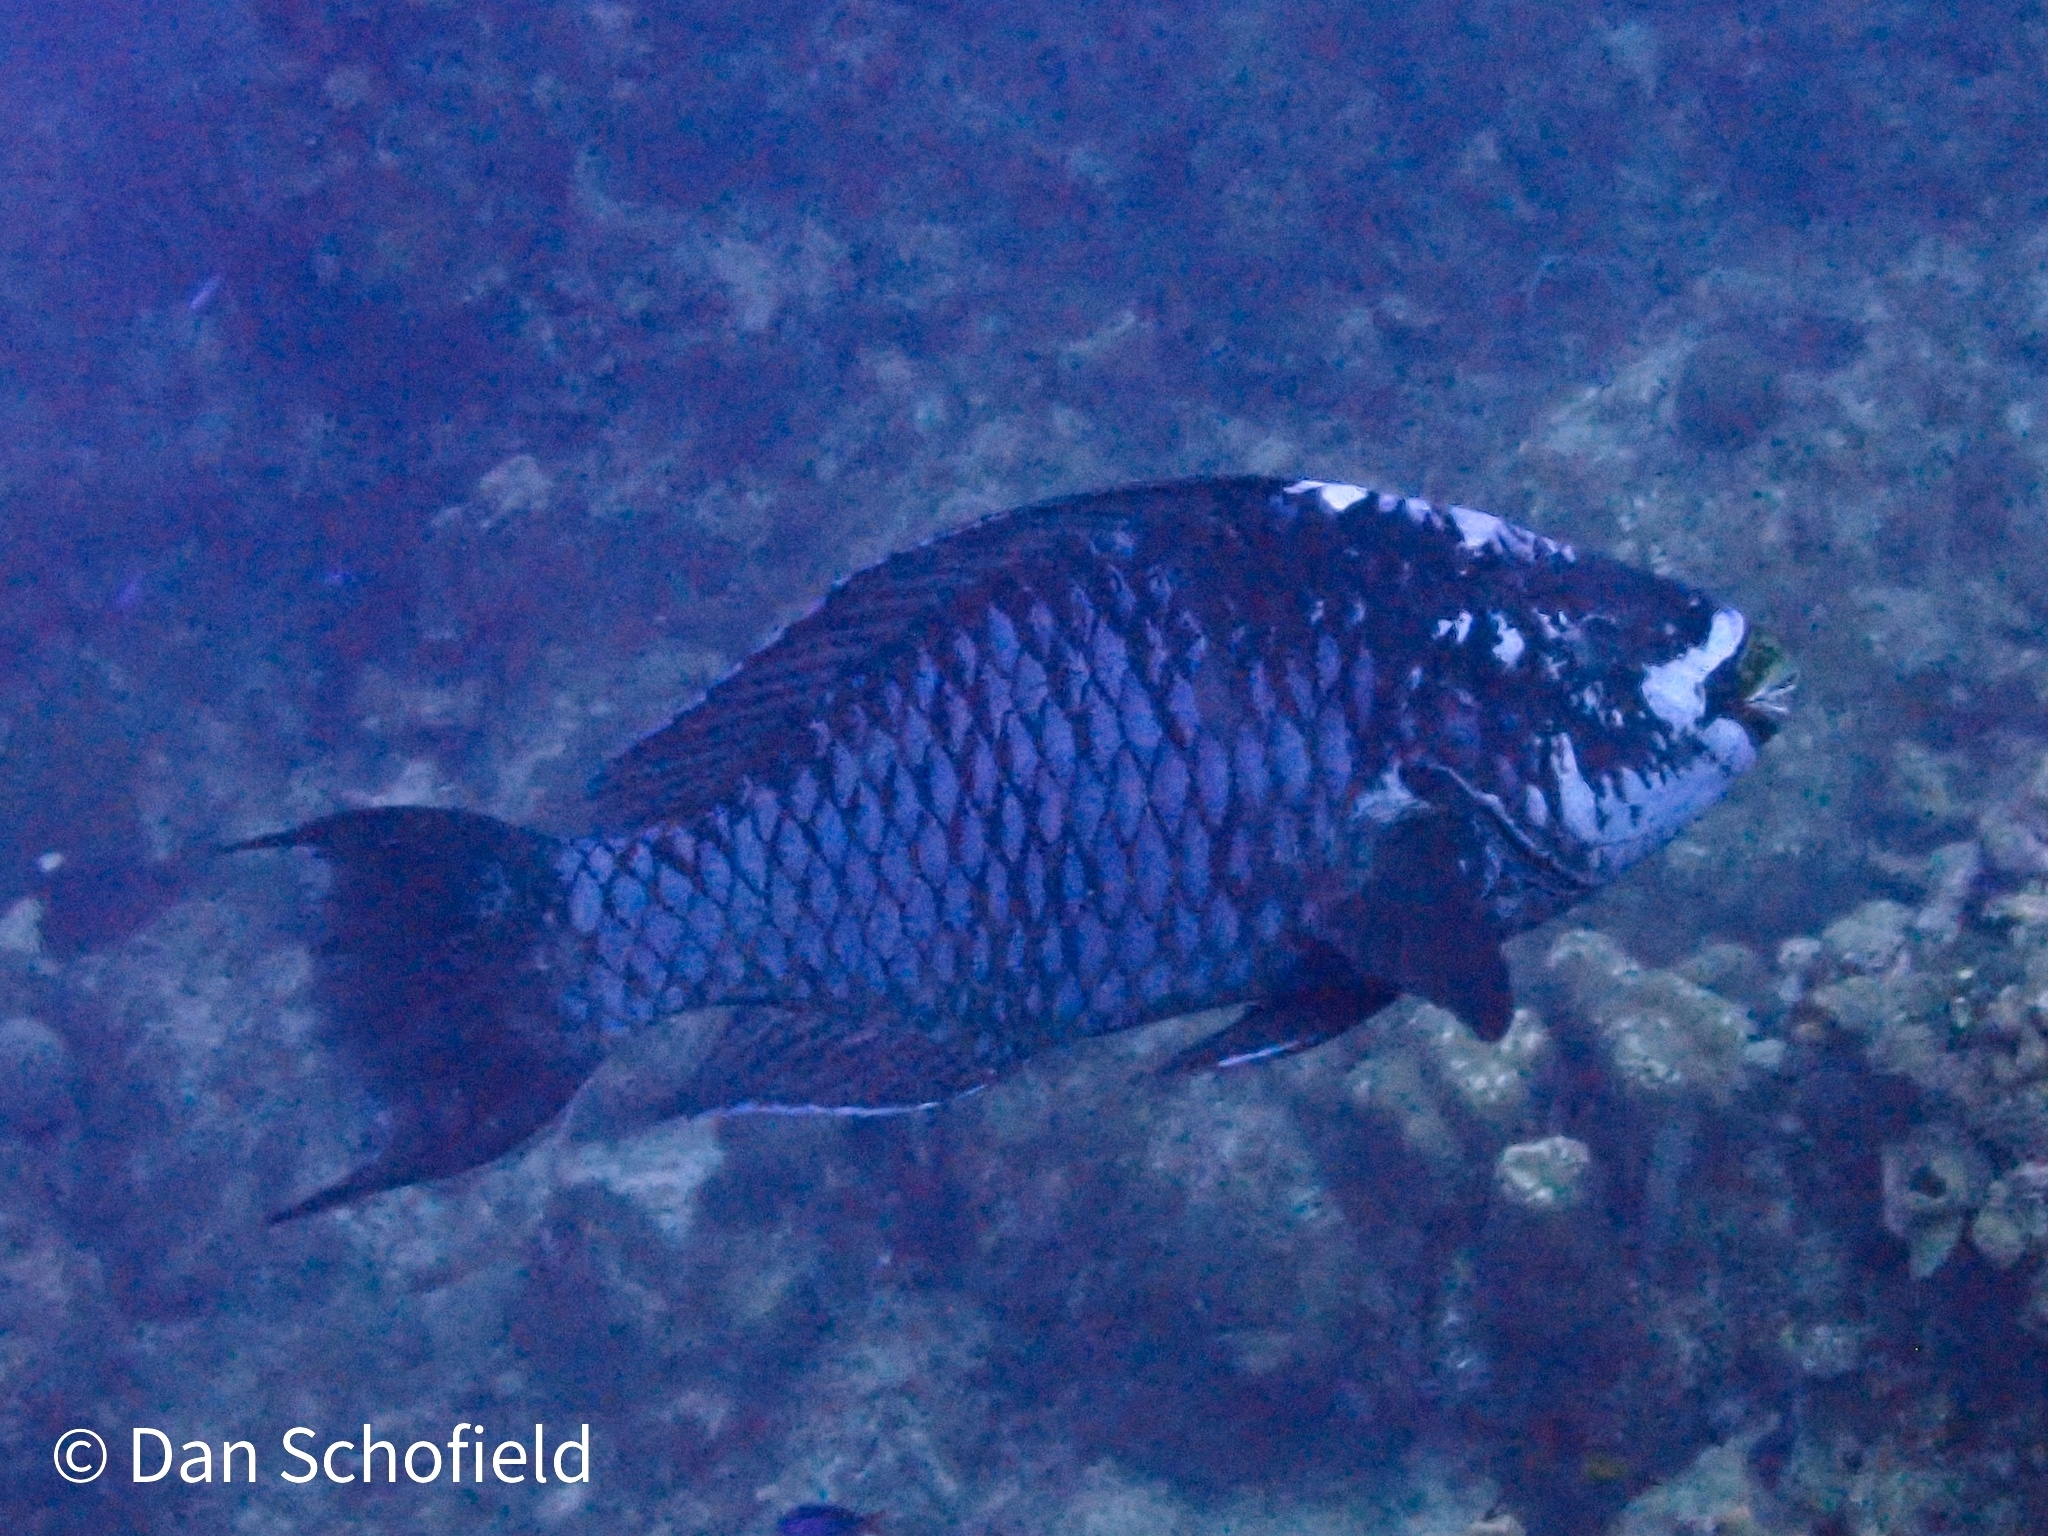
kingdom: Animalia
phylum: Chordata
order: Perciformes
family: Scaridae
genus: Scarus
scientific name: Scarus coelestinus
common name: Midnight parrotfish
